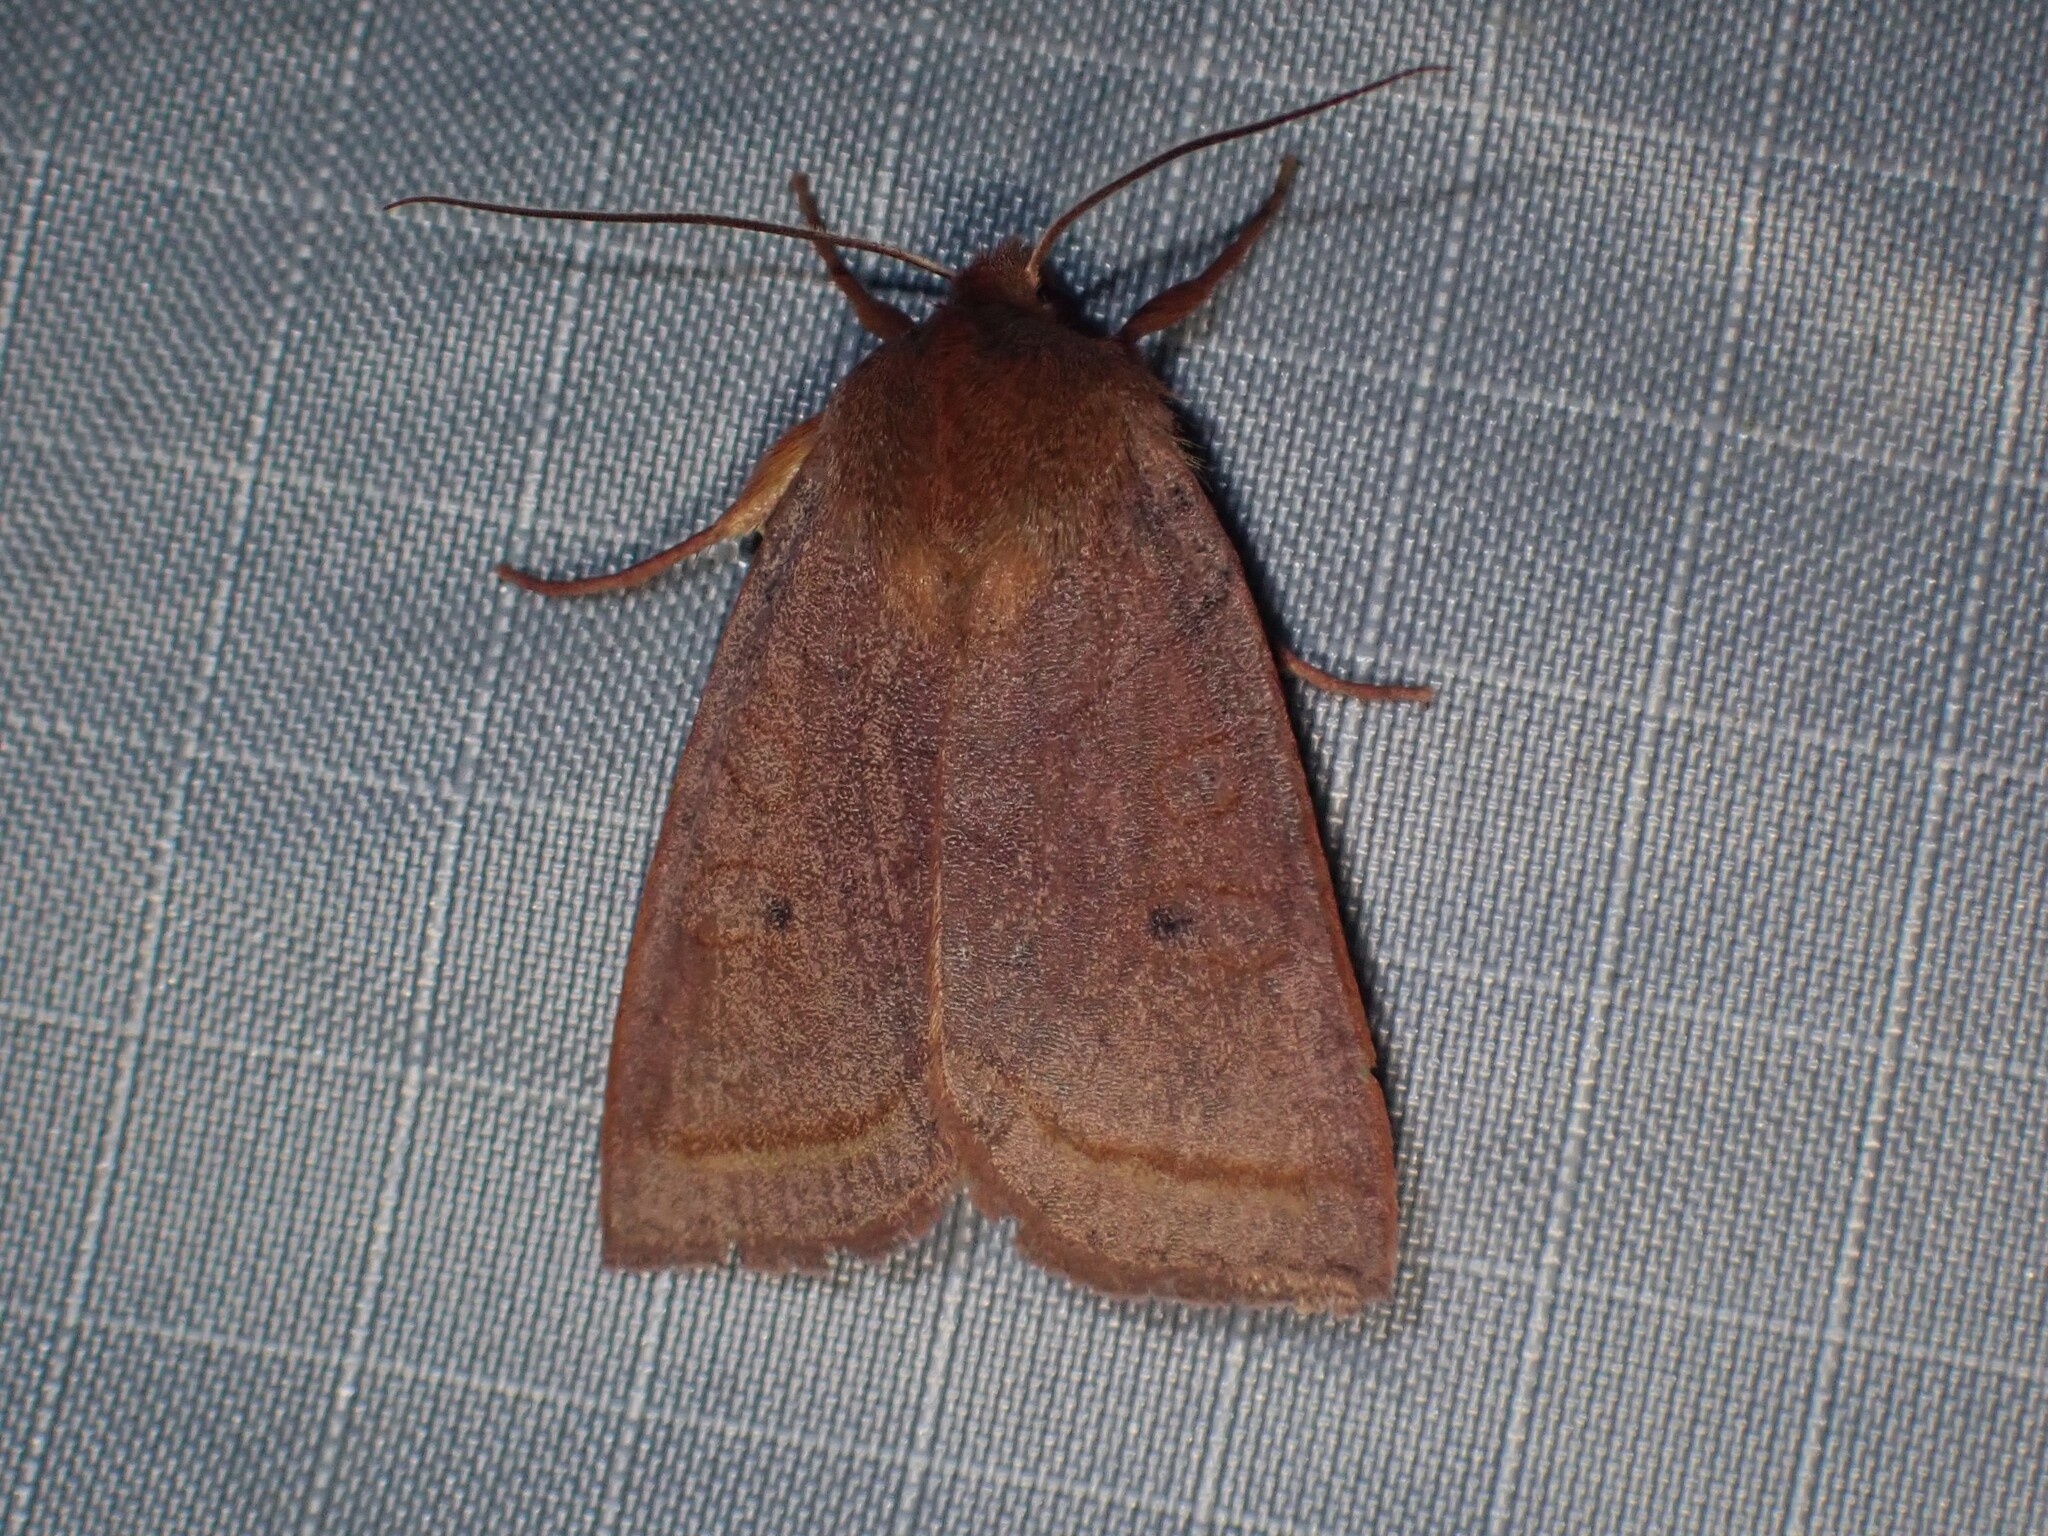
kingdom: Animalia
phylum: Arthropoda
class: Insecta
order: Lepidoptera
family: Noctuidae
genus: Epiglaea
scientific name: Epiglaea apiata
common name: Pointed sallow
